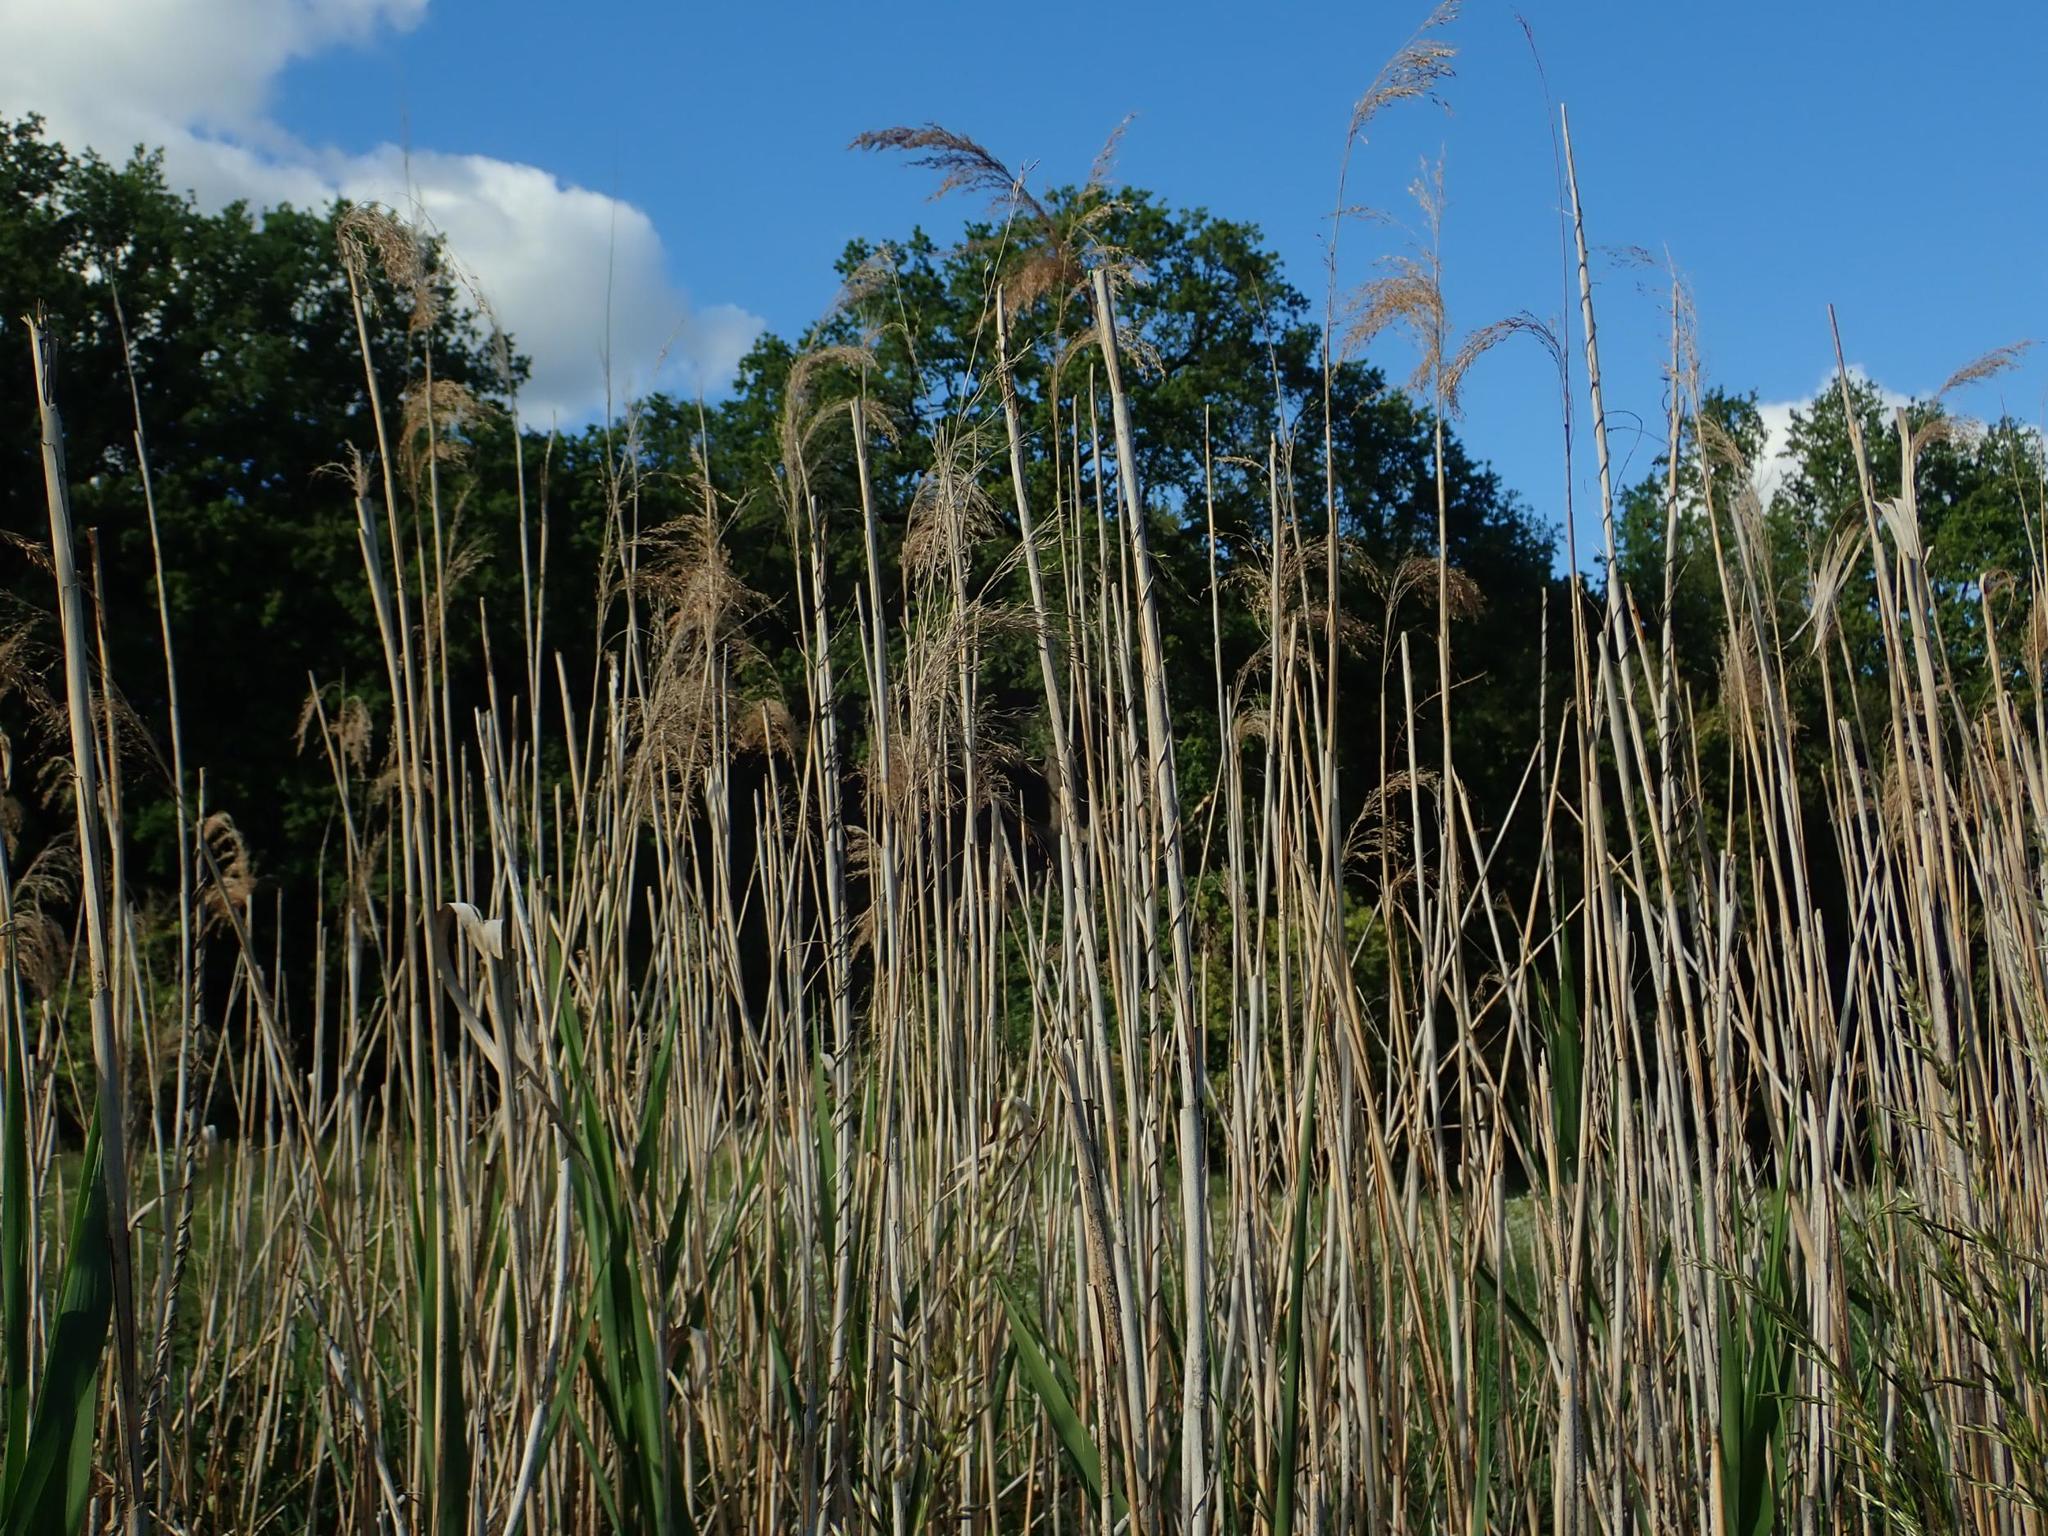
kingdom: Plantae
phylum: Tracheophyta
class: Liliopsida
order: Poales
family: Poaceae
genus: Phragmites
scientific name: Phragmites australis
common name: Common reed
